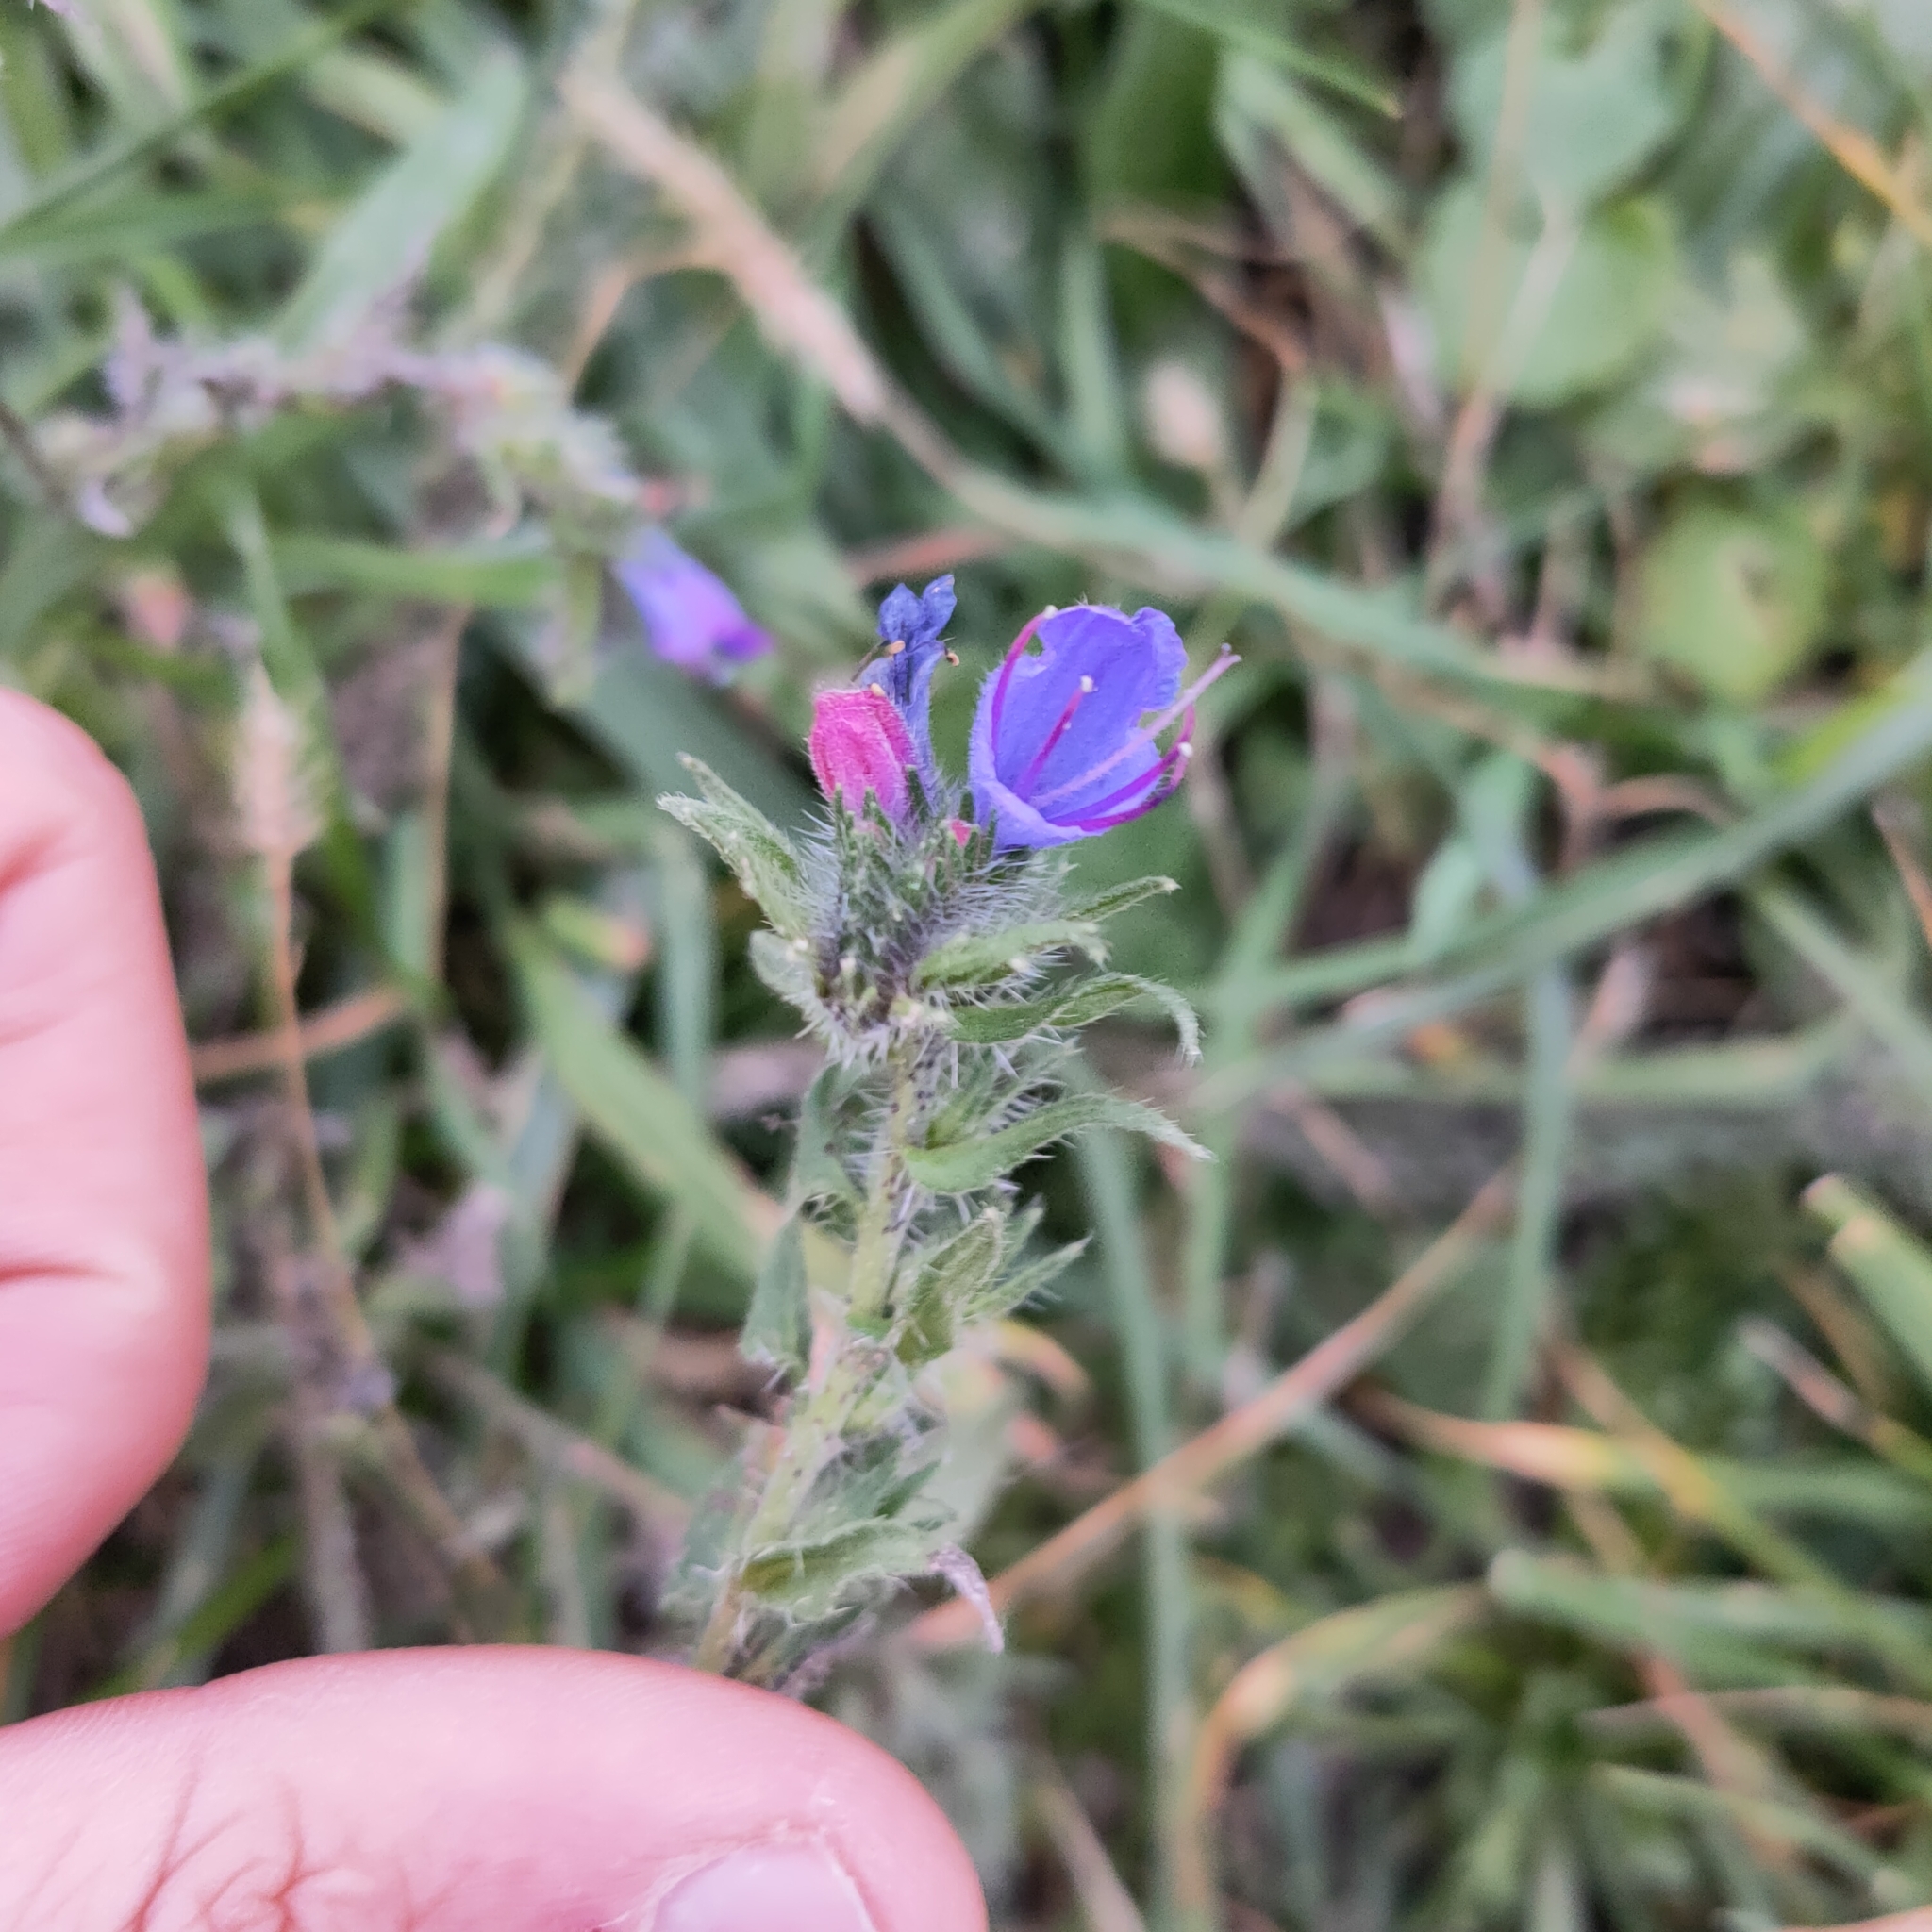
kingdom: Plantae
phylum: Tracheophyta
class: Magnoliopsida
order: Boraginales
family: Boraginaceae
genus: Echium
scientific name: Echium vulgare
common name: Common viper's bugloss
